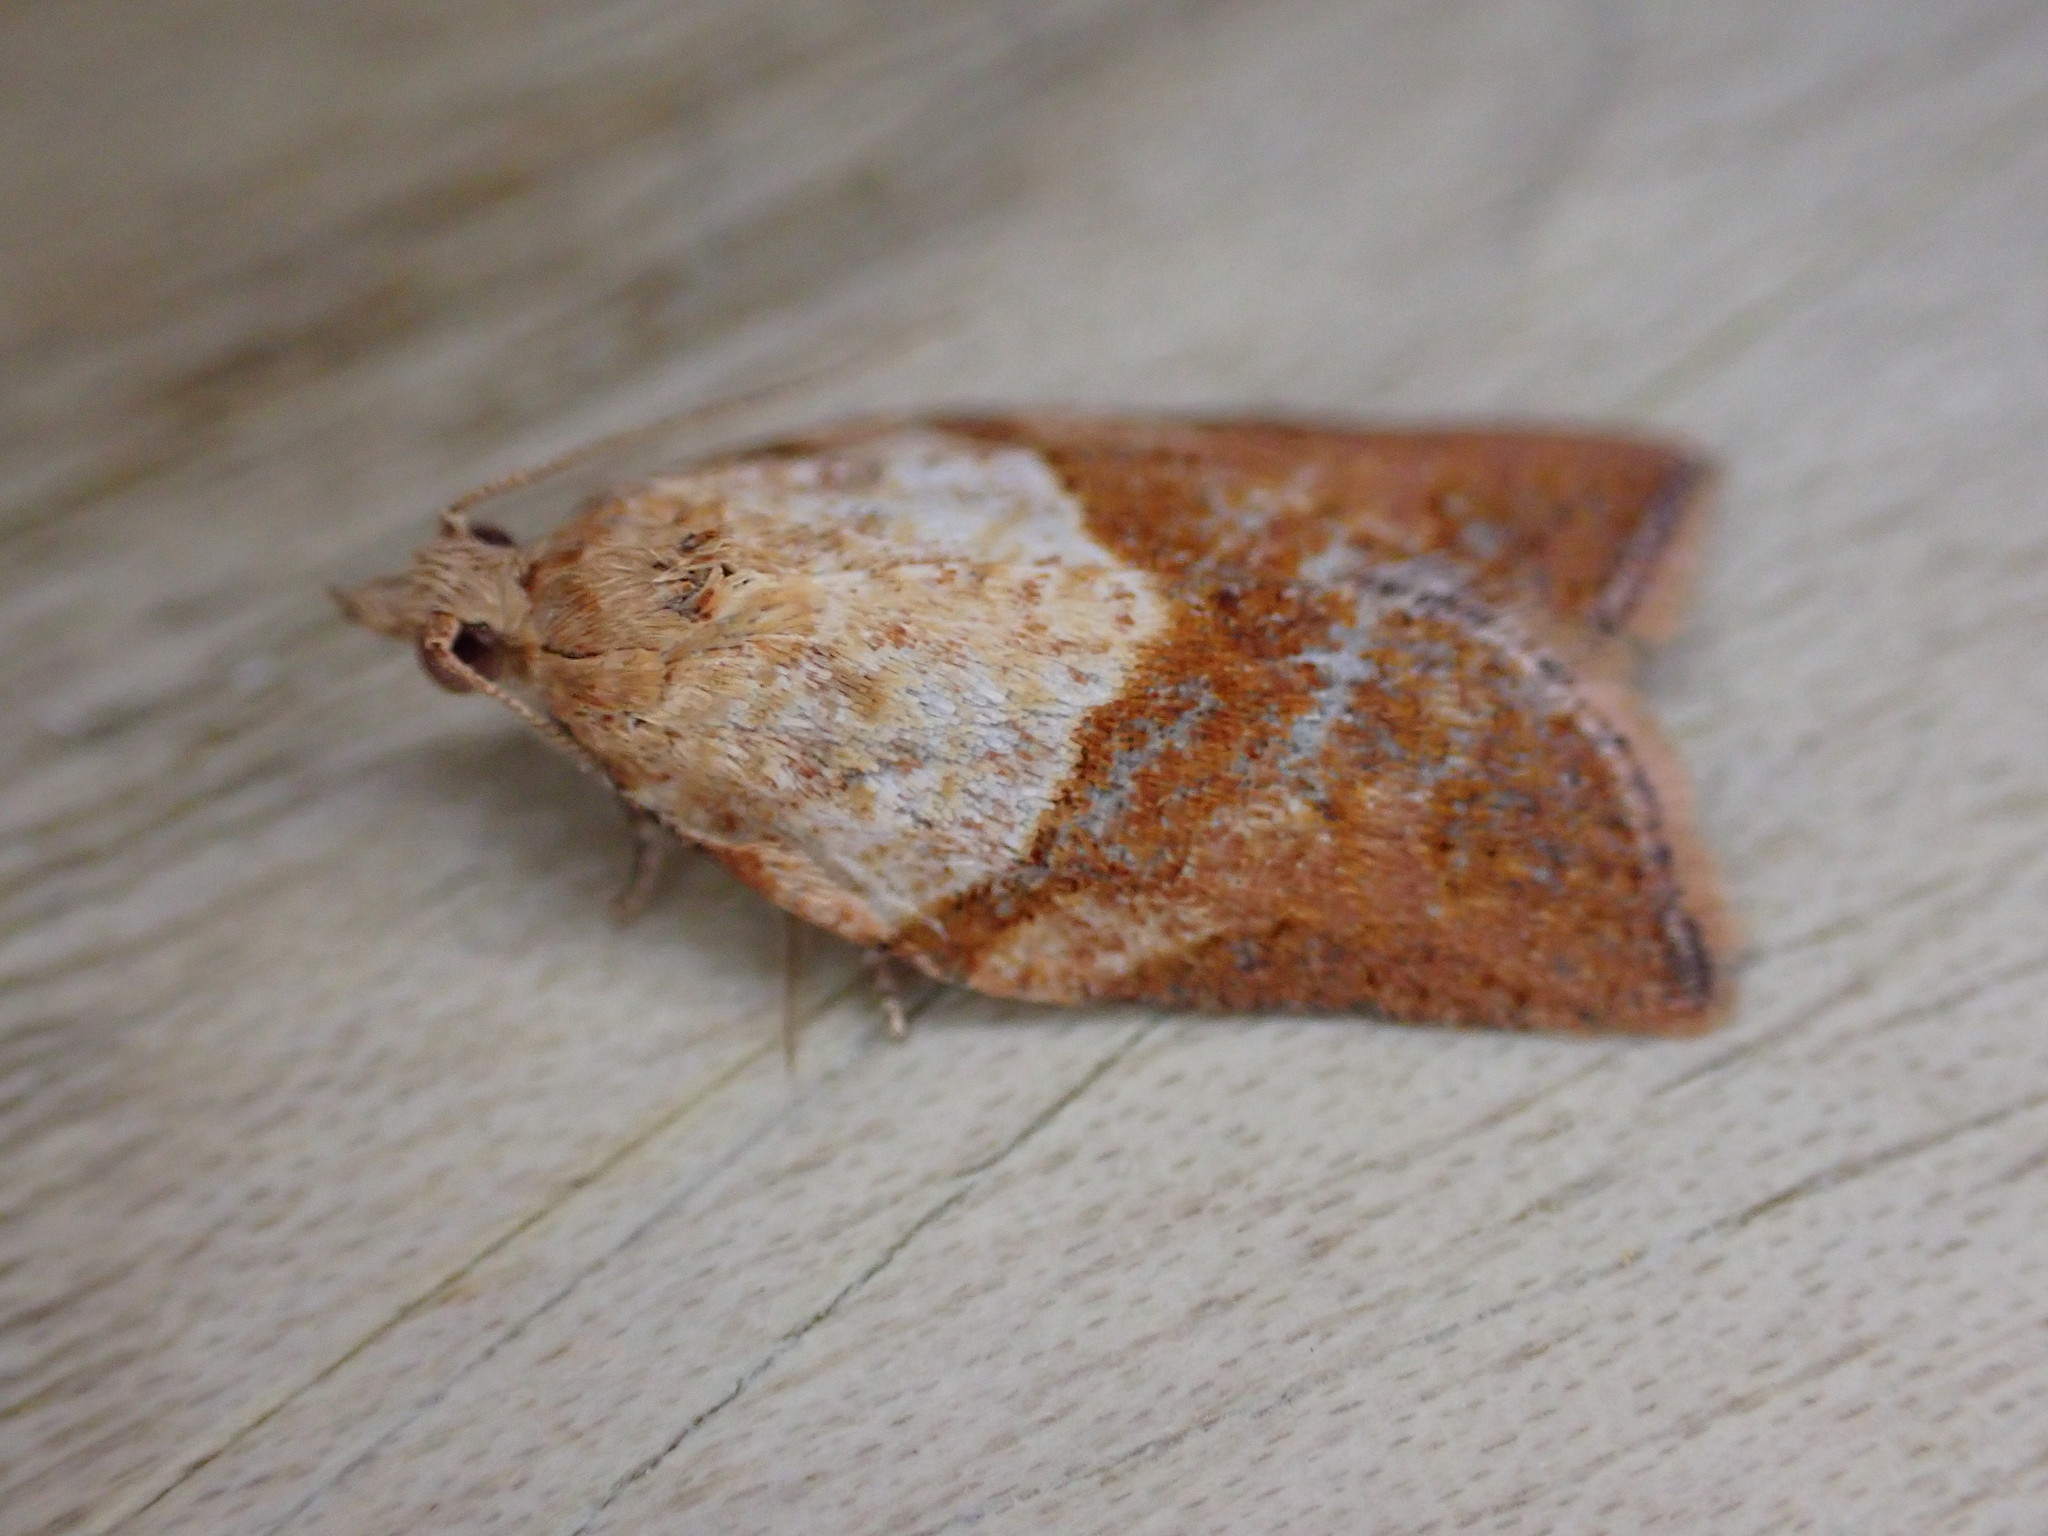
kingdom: Animalia
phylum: Arthropoda
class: Insecta
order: Lepidoptera
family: Tortricidae
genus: Epiphyas
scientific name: Epiphyas postvittana
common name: Light brown apple moth
